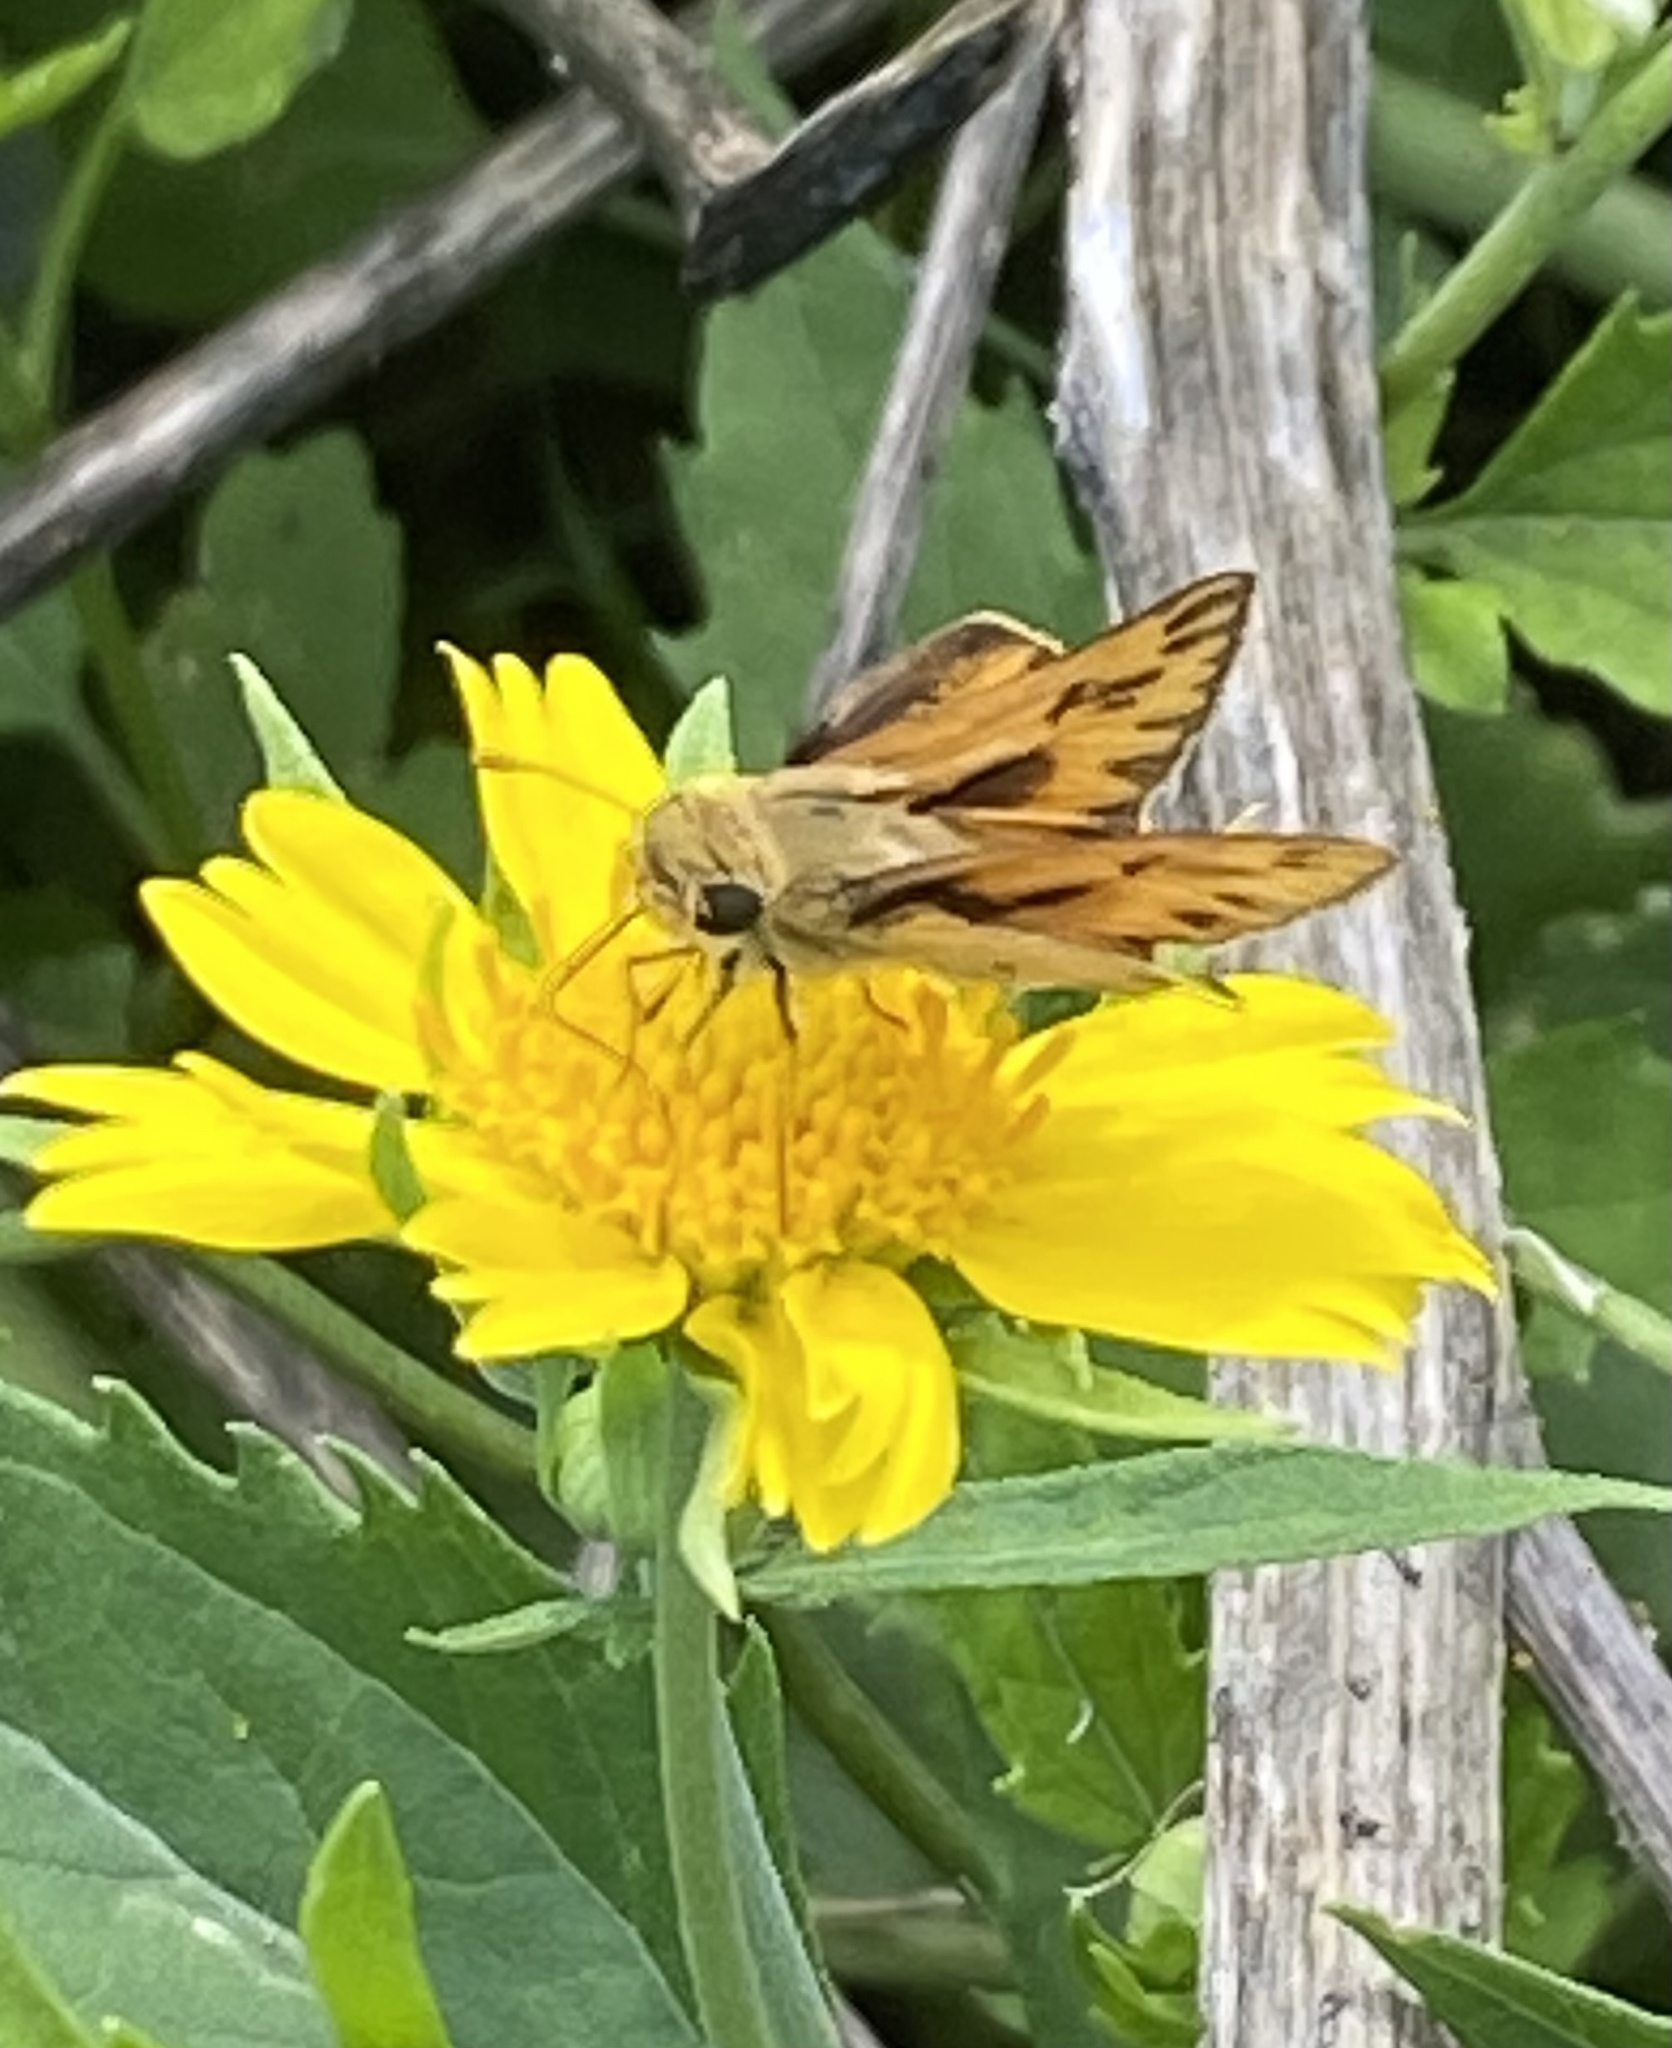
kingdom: Animalia
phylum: Arthropoda
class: Insecta
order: Lepidoptera
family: Hesperiidae
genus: Hylephila
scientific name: Hylephila phyleus
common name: Fiery skipper
